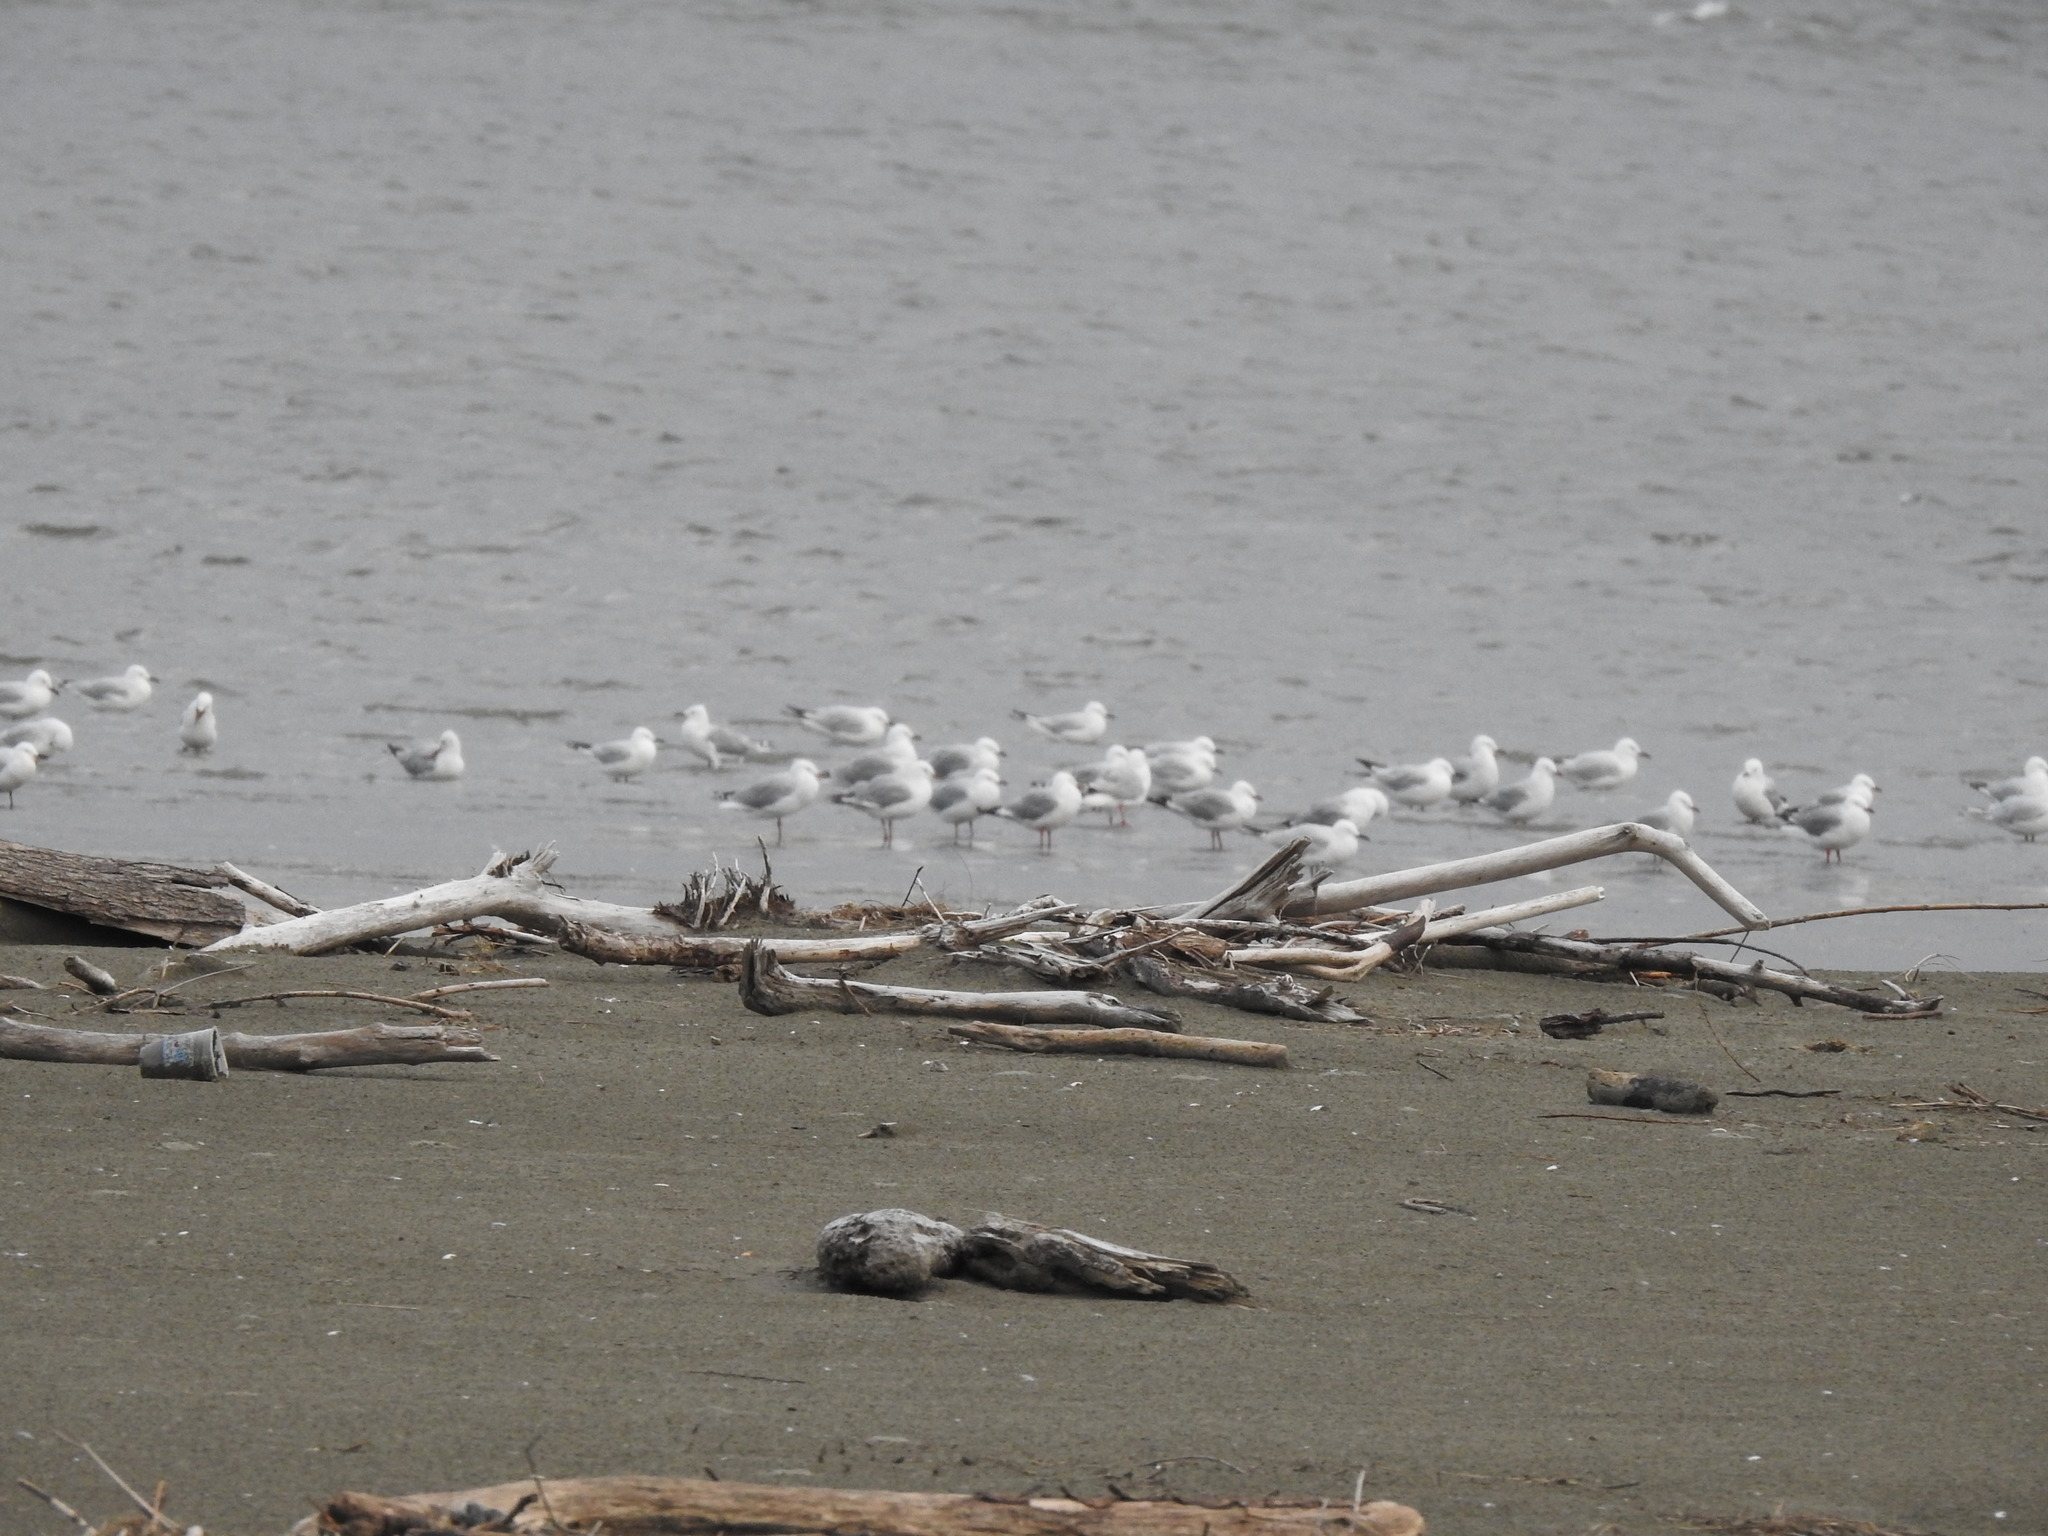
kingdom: Animalia
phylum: Chordata
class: Aves
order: Charadriiformes
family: Laridae
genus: Chroicocephalus
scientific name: Chroicocephalus bulleri
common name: Black-billed gull
